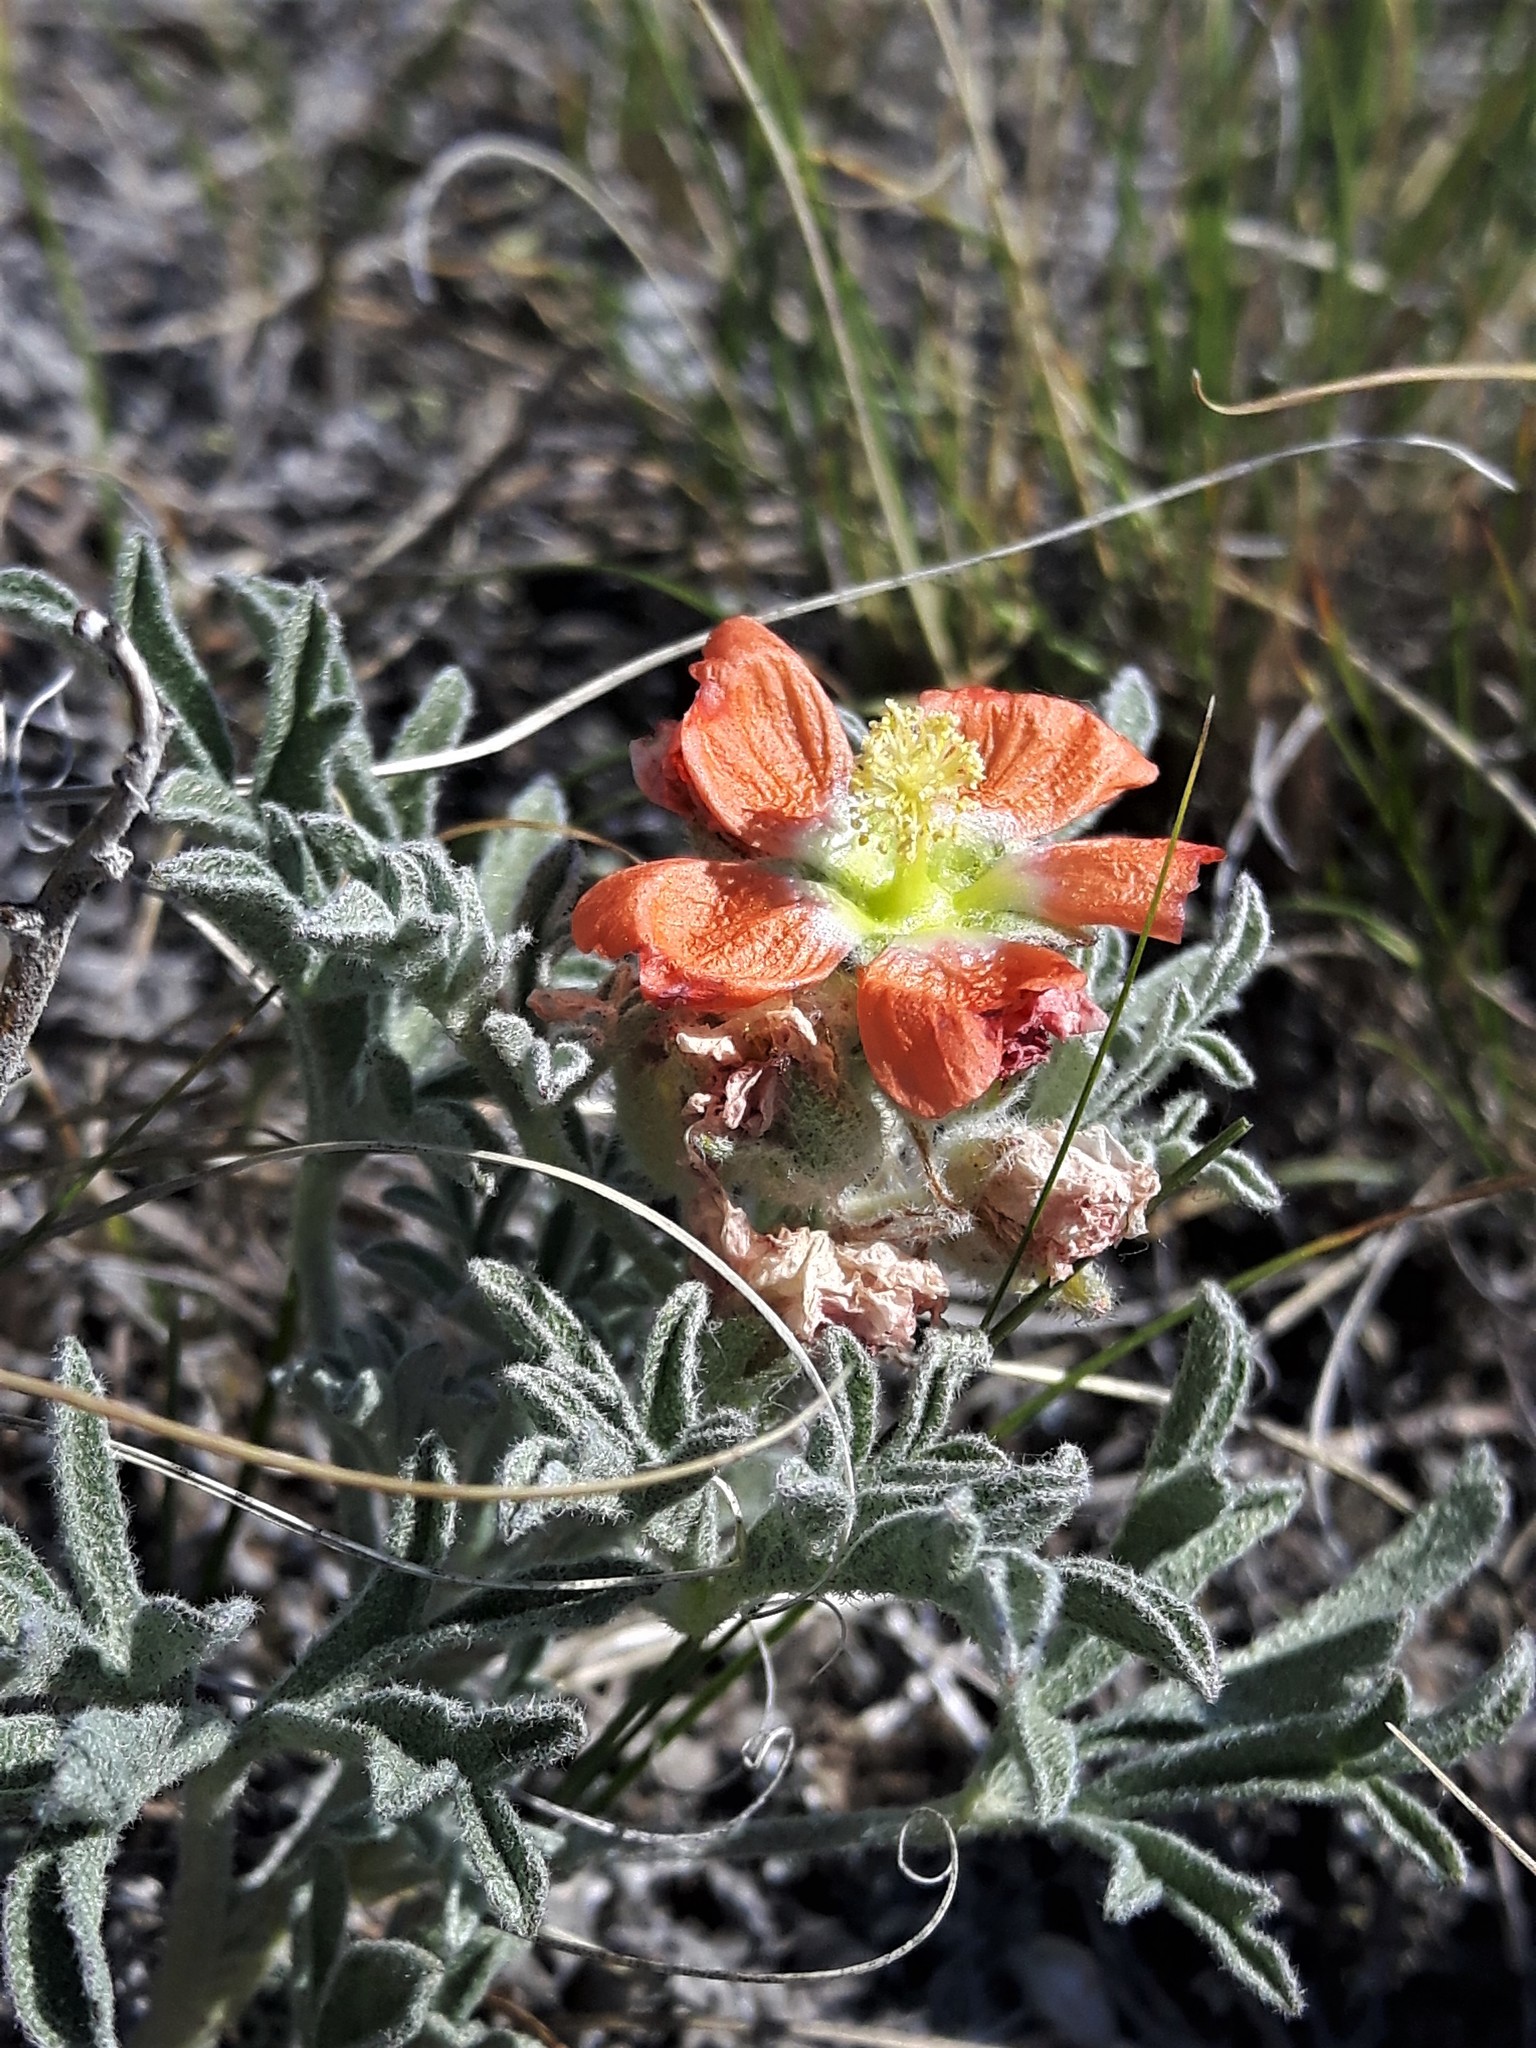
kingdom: Plantae
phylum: Tracheophyta
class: Magnoliopsida
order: Malvales
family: Malvaceae
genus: Sphaeralcea
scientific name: Sphaeralcea coccinea
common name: Moss-rose
